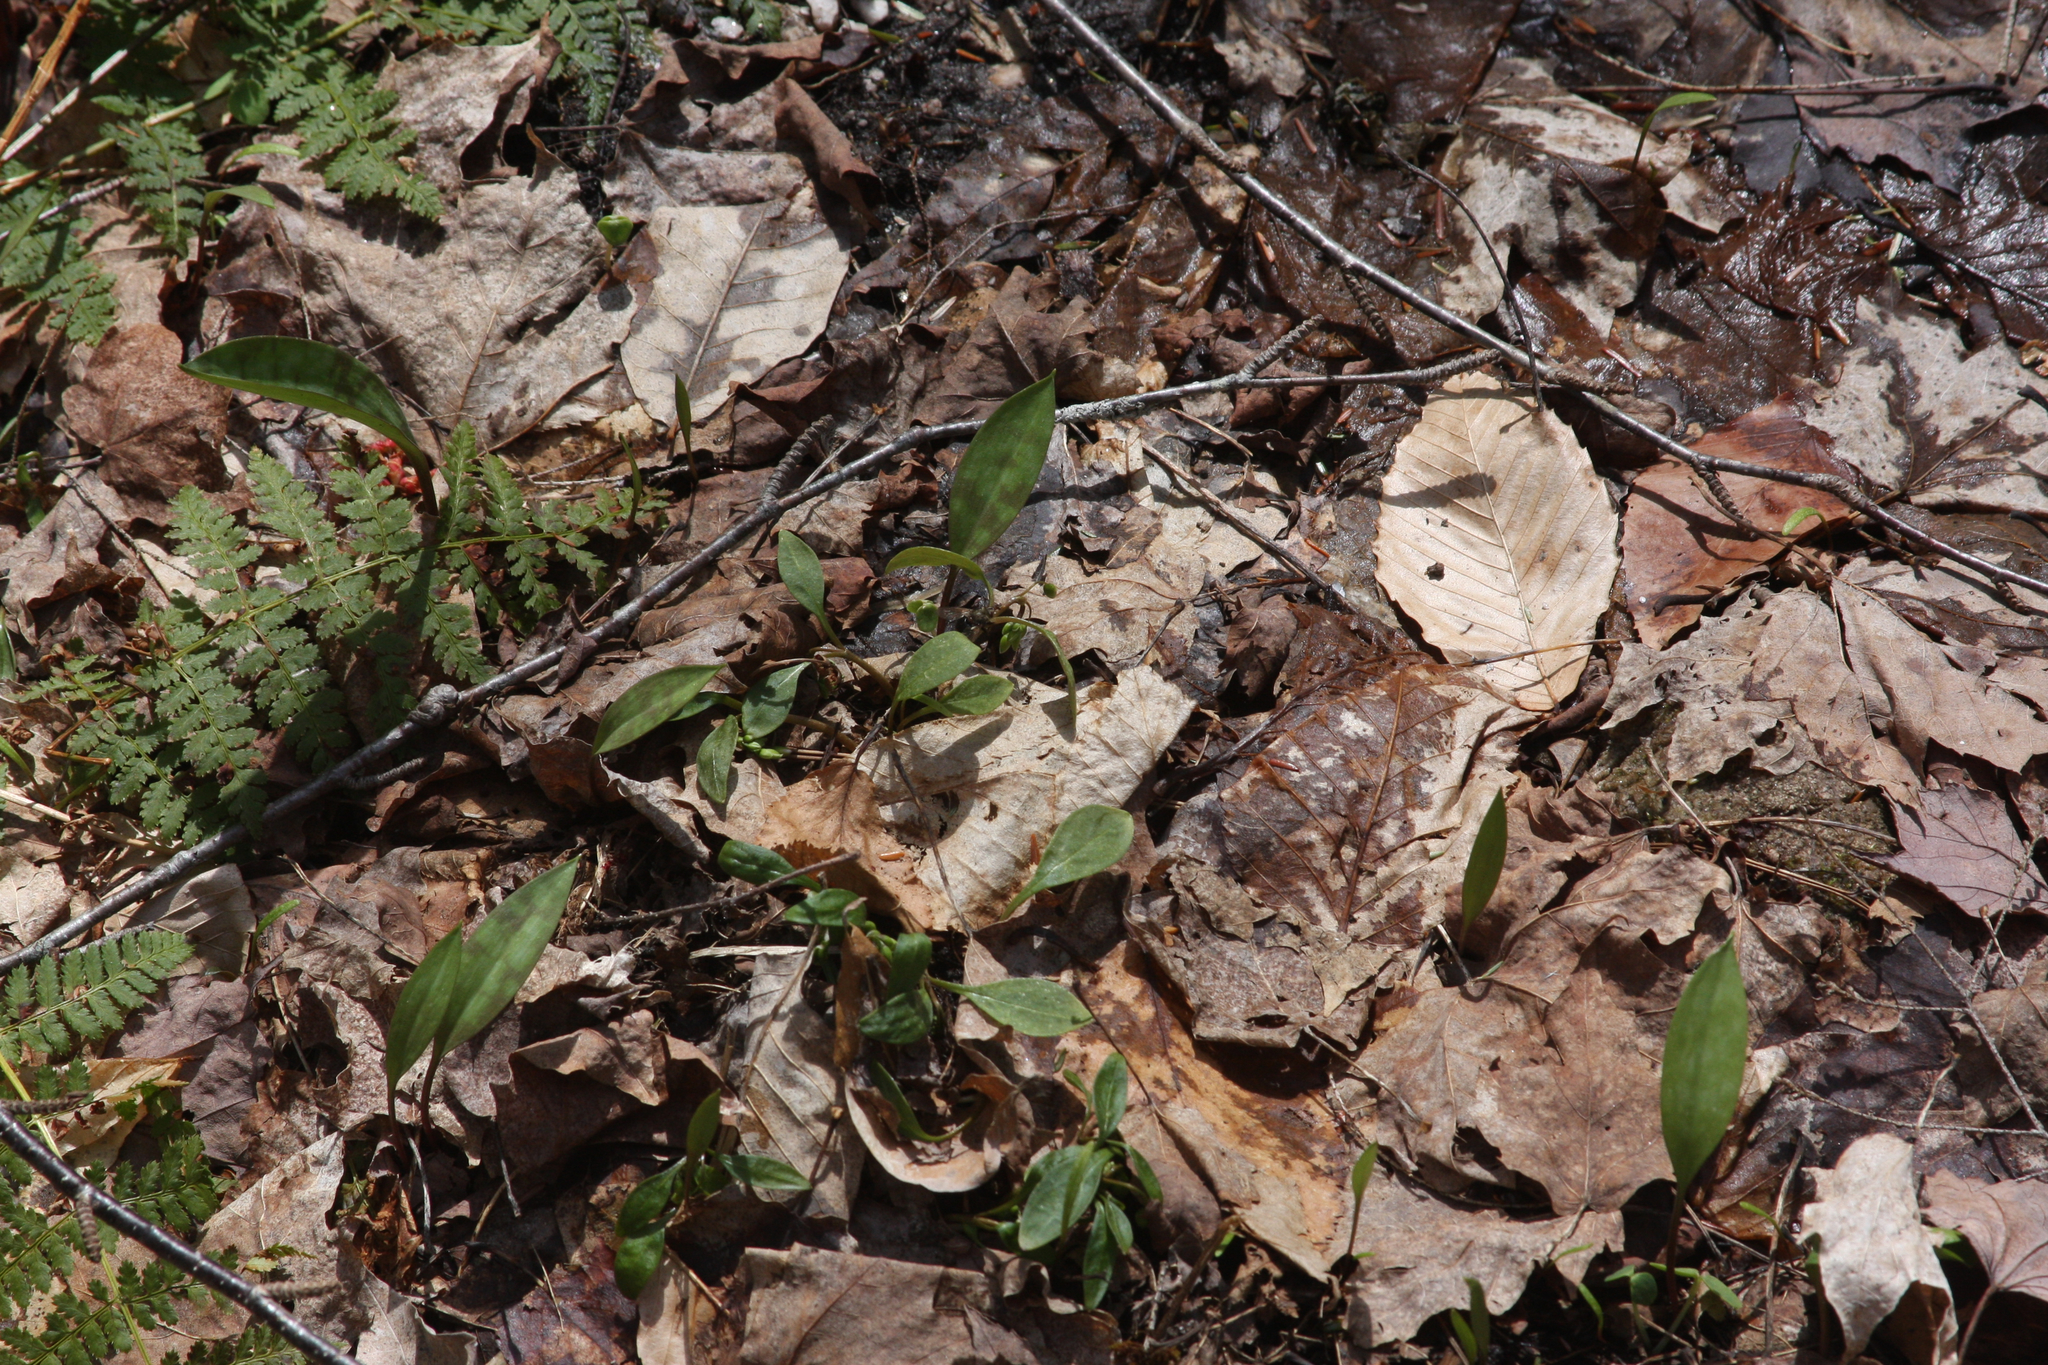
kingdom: Plantae
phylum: Tracheophyta
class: Liliopsida
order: Liliales
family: Liliaceae
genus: Erythronium
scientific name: Erythronium americanum
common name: Yellow adder's-tongue
